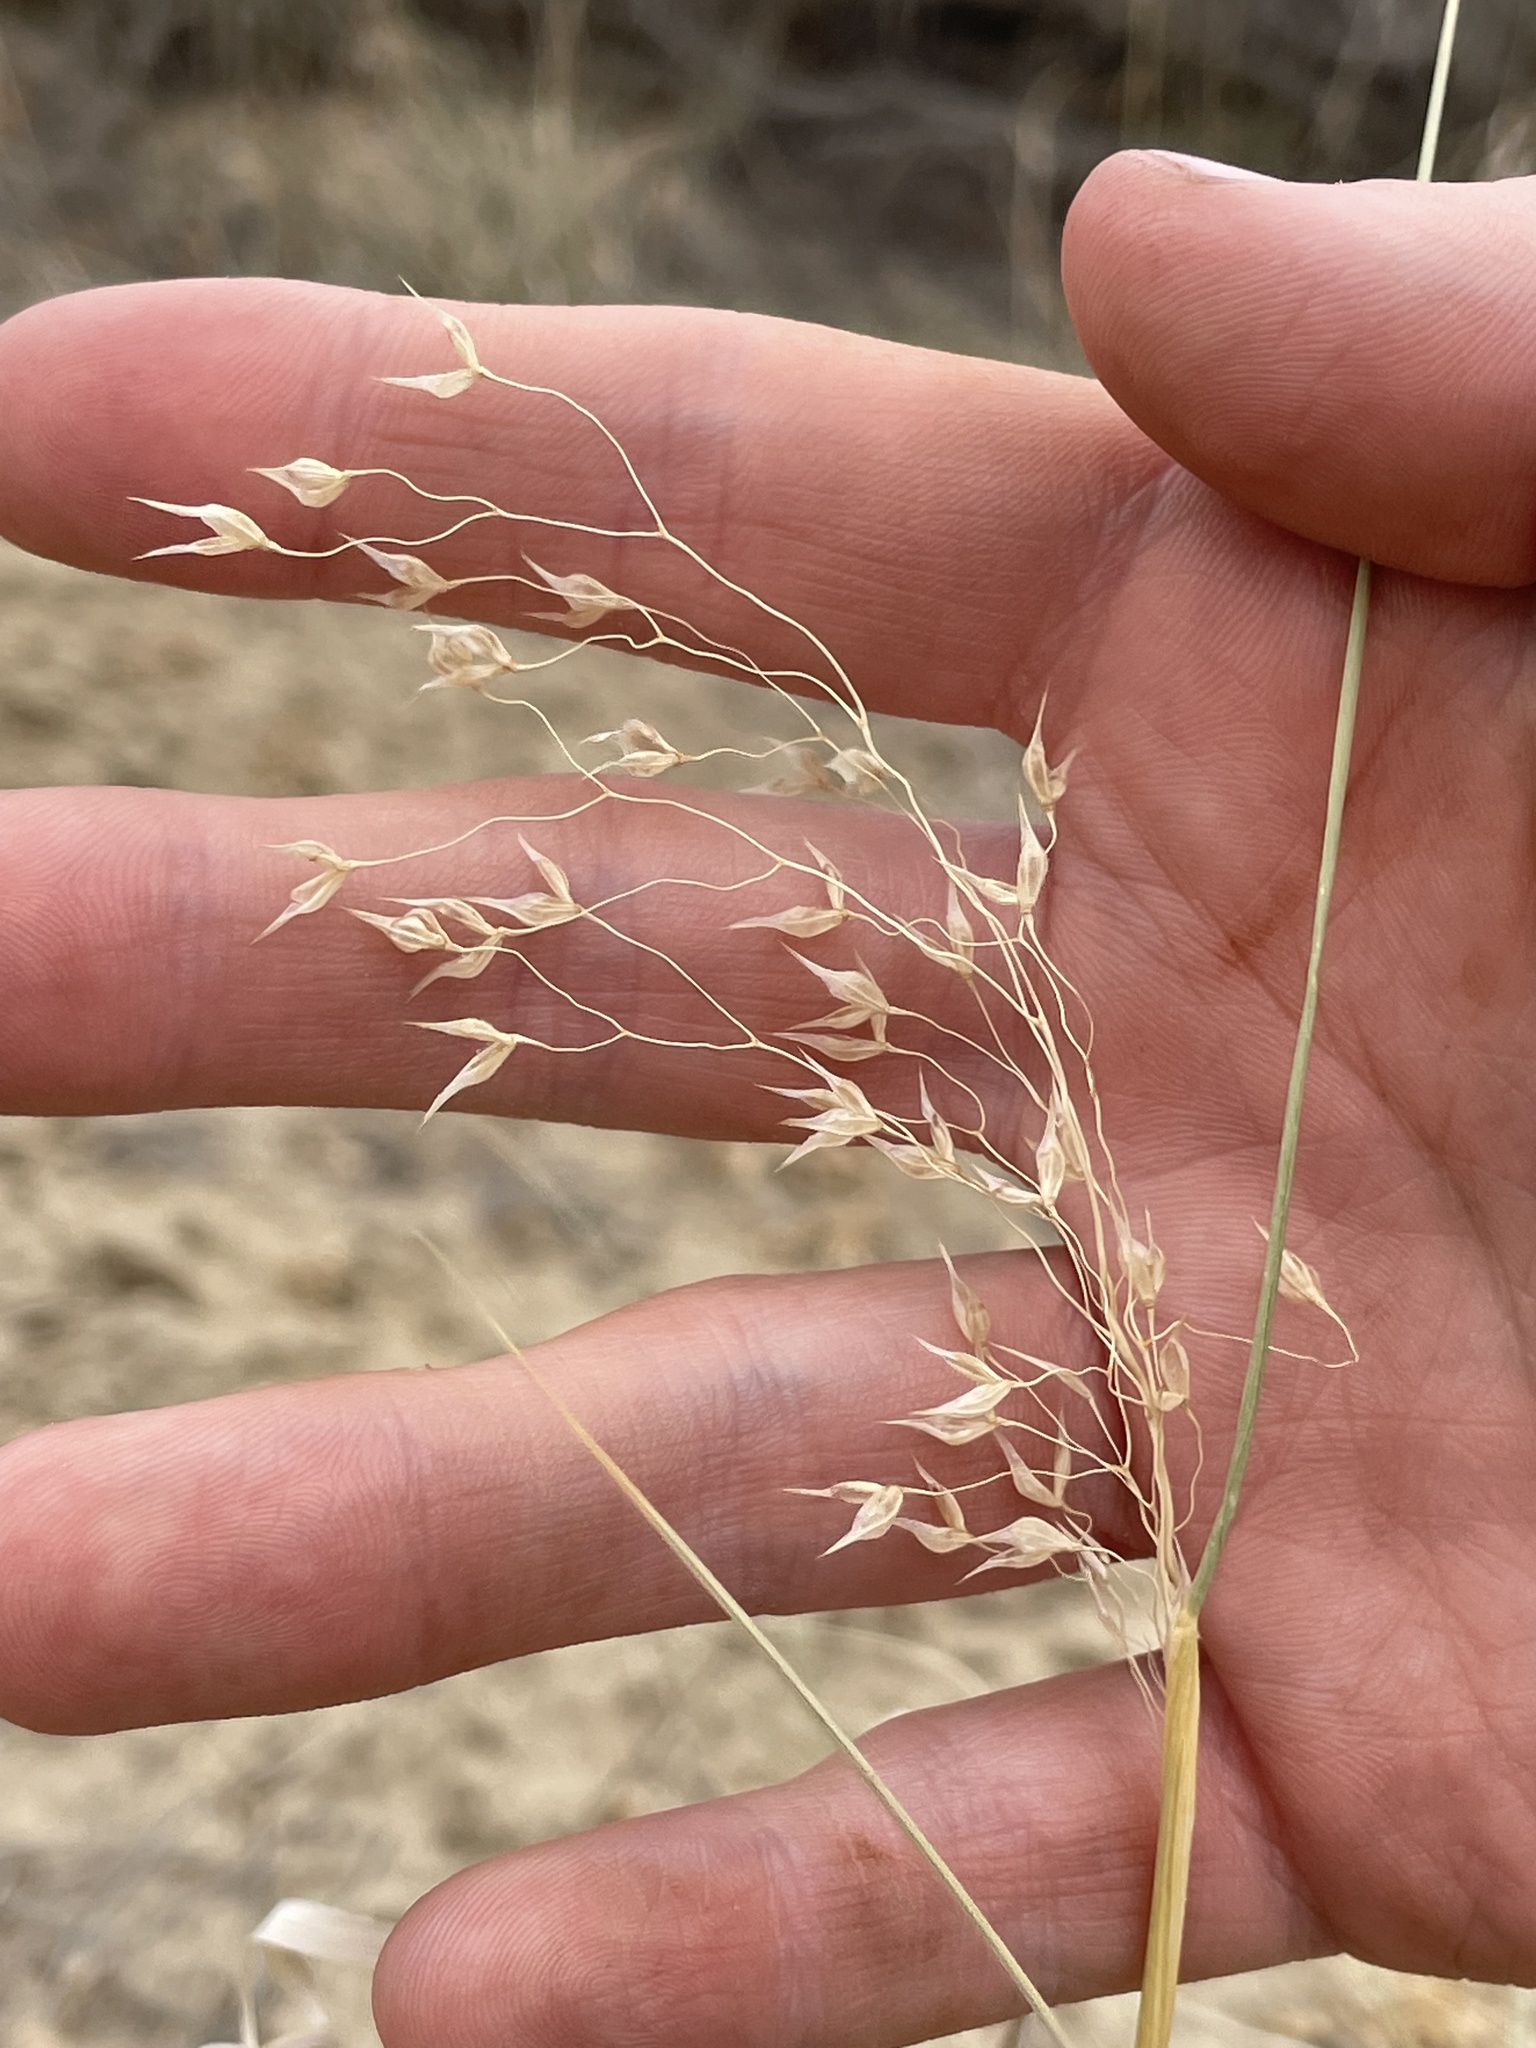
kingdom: Plantae
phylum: Tracheophyta
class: Liliopsida
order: Poales
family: Poaceae
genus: Eriocoma
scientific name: Eriocoma hymenoides
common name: Indian mountain ricegrass
